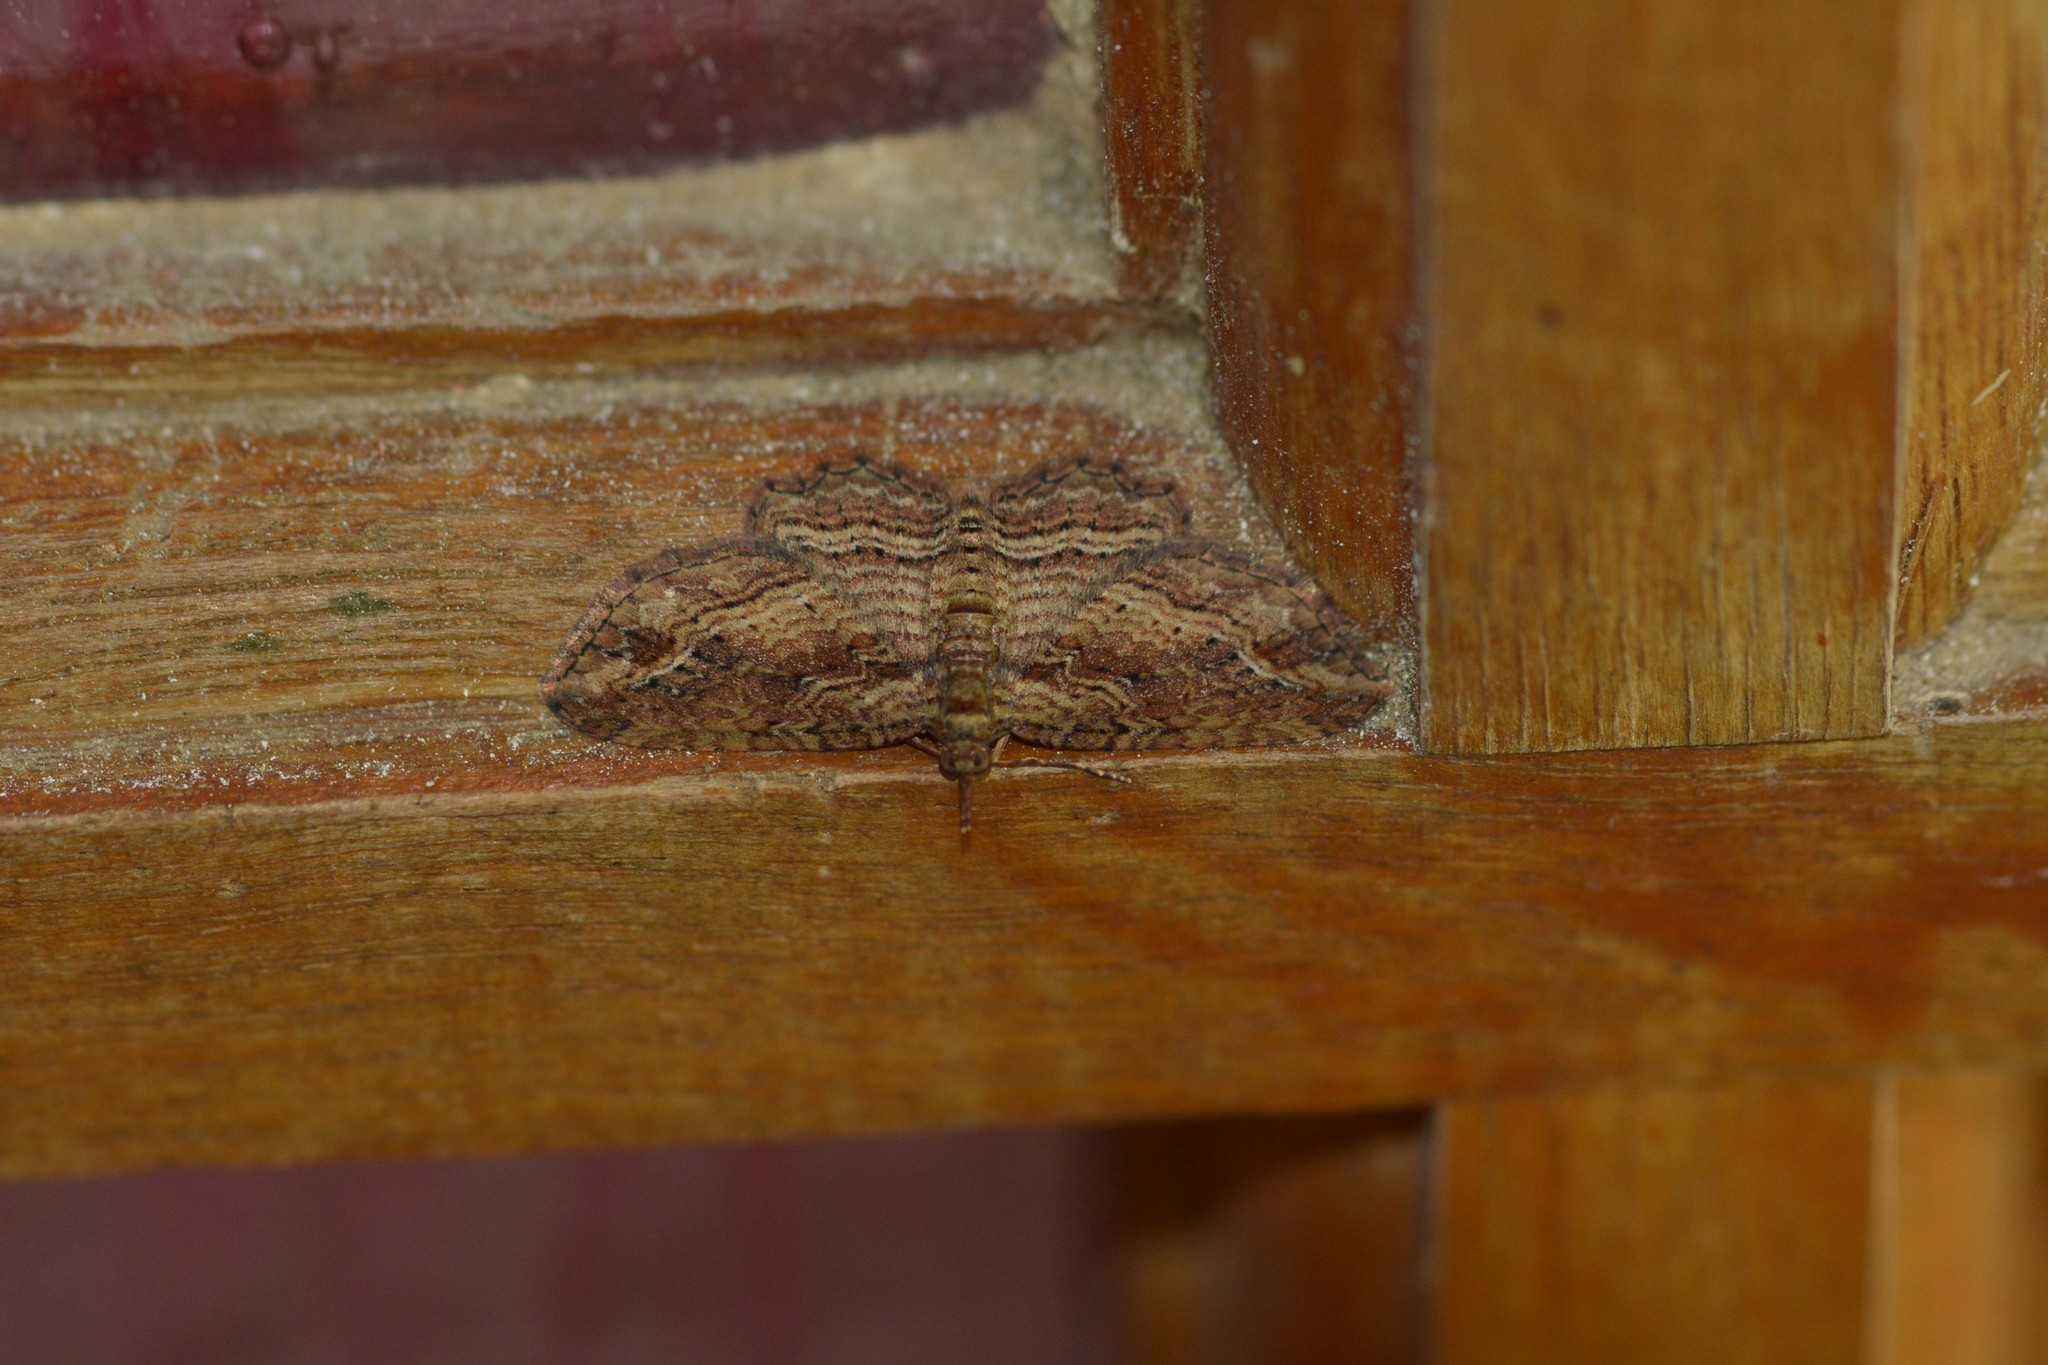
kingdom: Animalia
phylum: Arthropoda
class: Insecta
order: Lepidoptera
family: Geometridae
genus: Chloroclystis
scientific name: Chloroclystis filata
